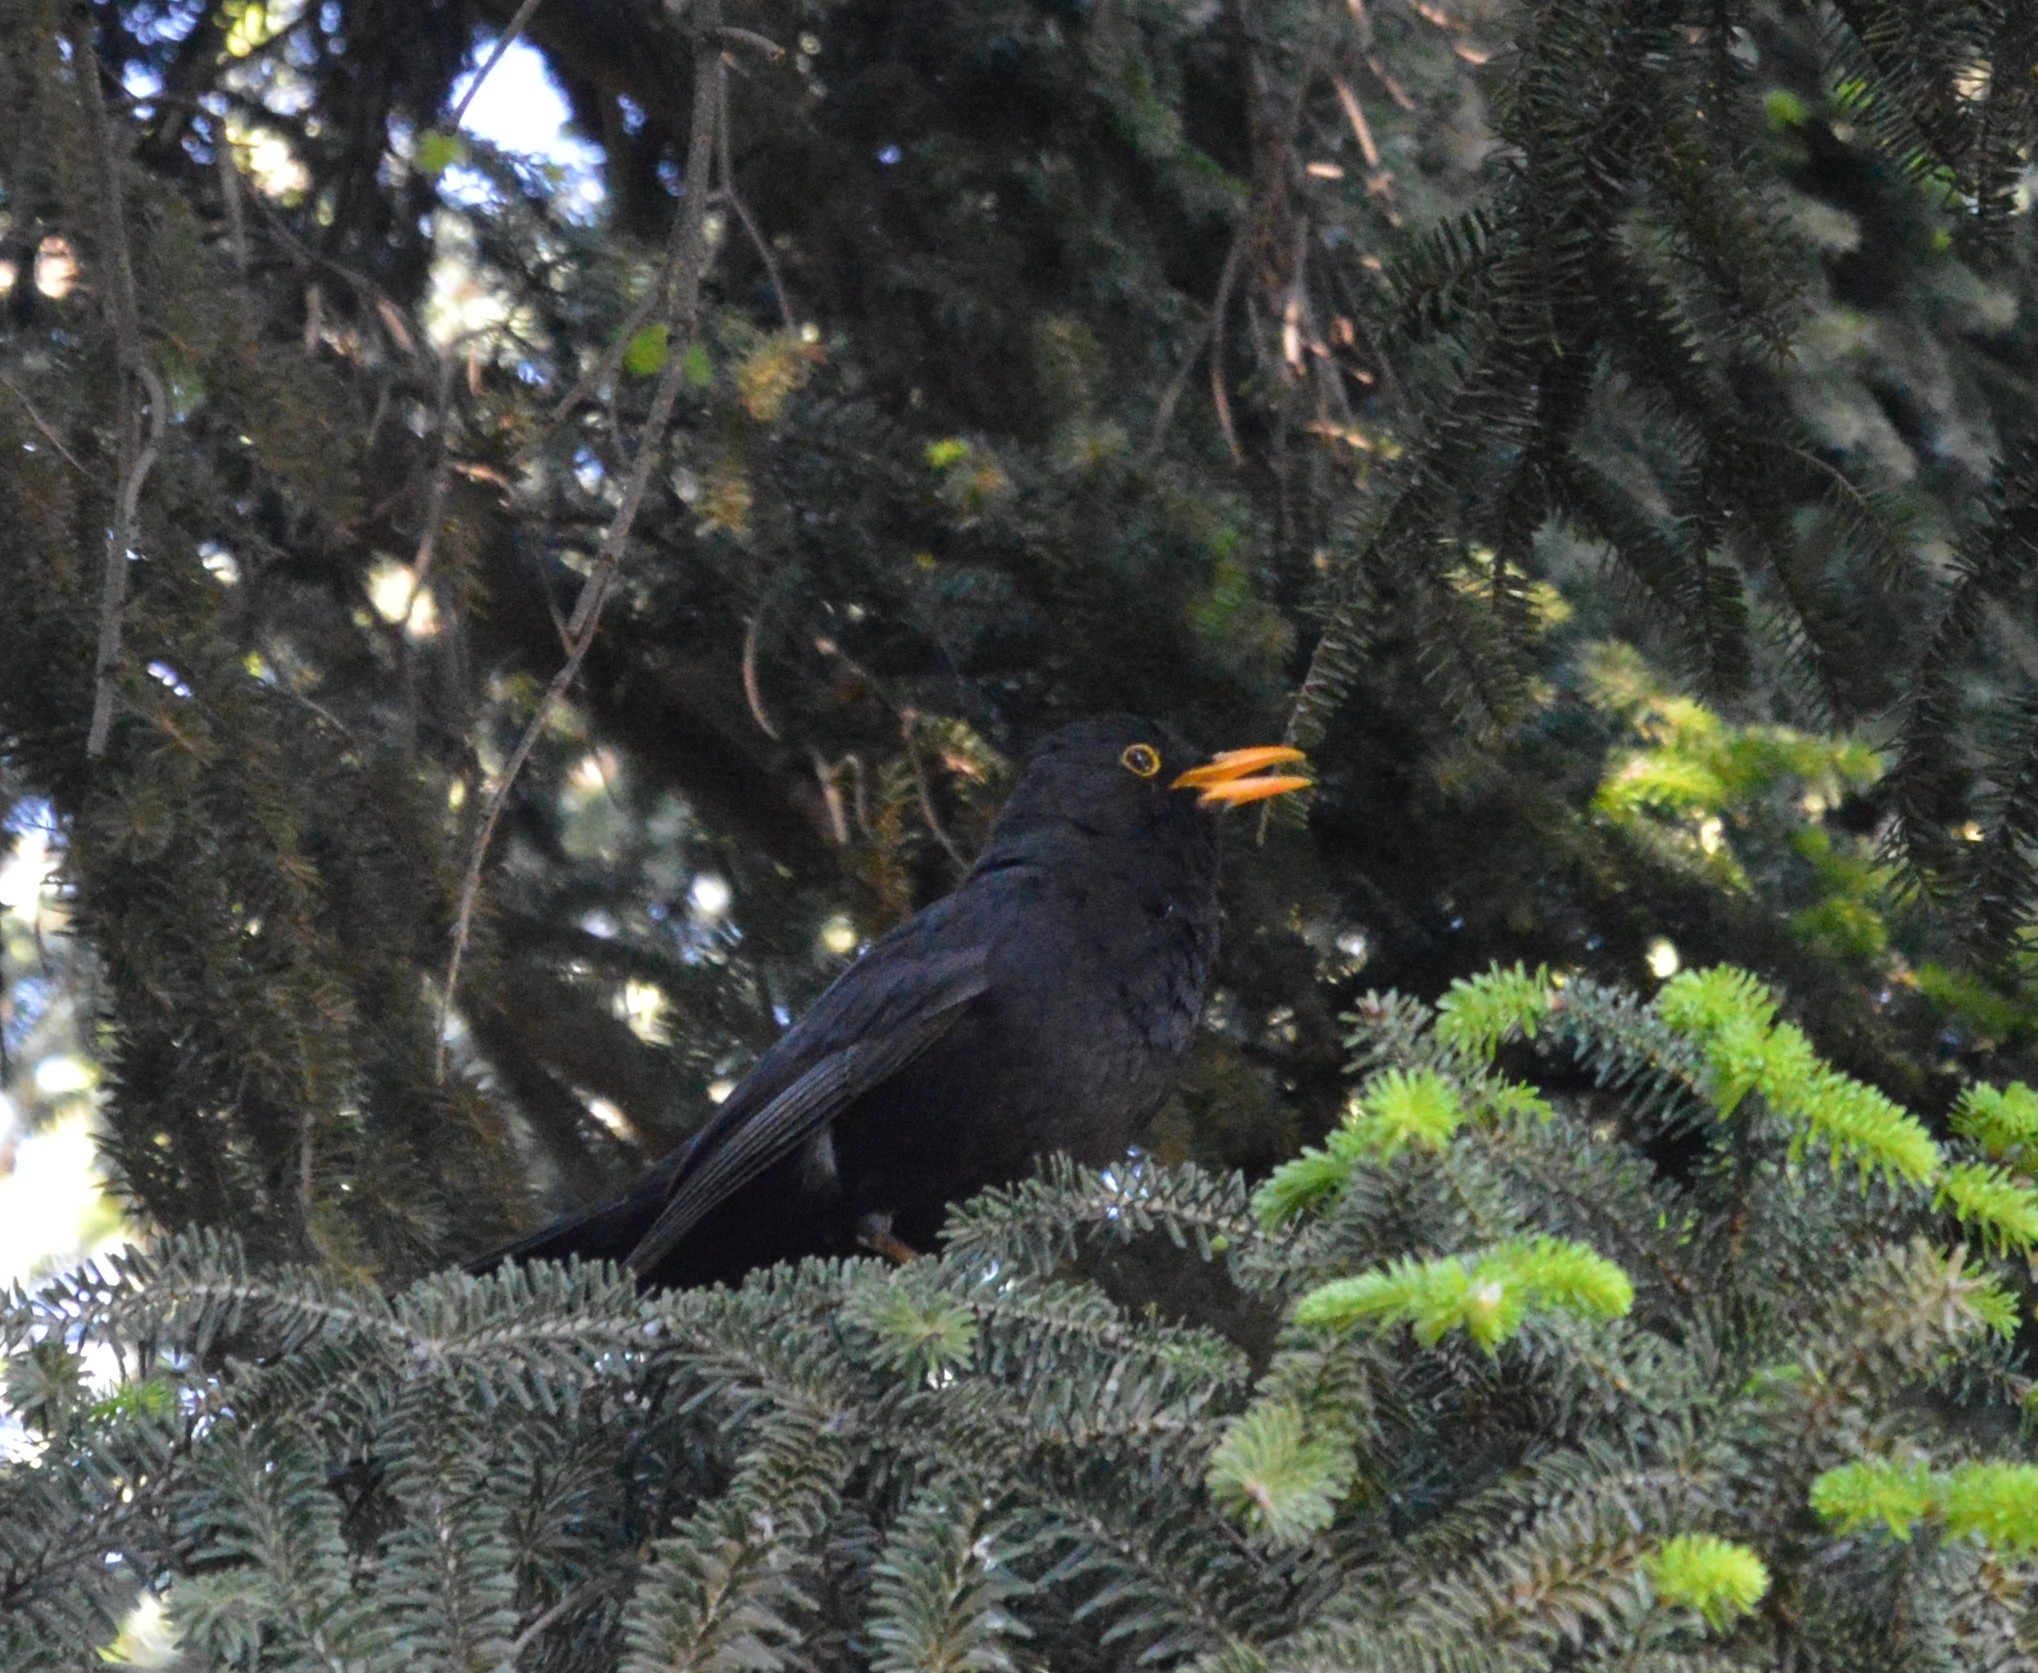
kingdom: Animalia
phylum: Chordata
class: Aves
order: Passeriformes
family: Turdidae
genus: Turdus
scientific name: Turdus merula
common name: Common blackbird
